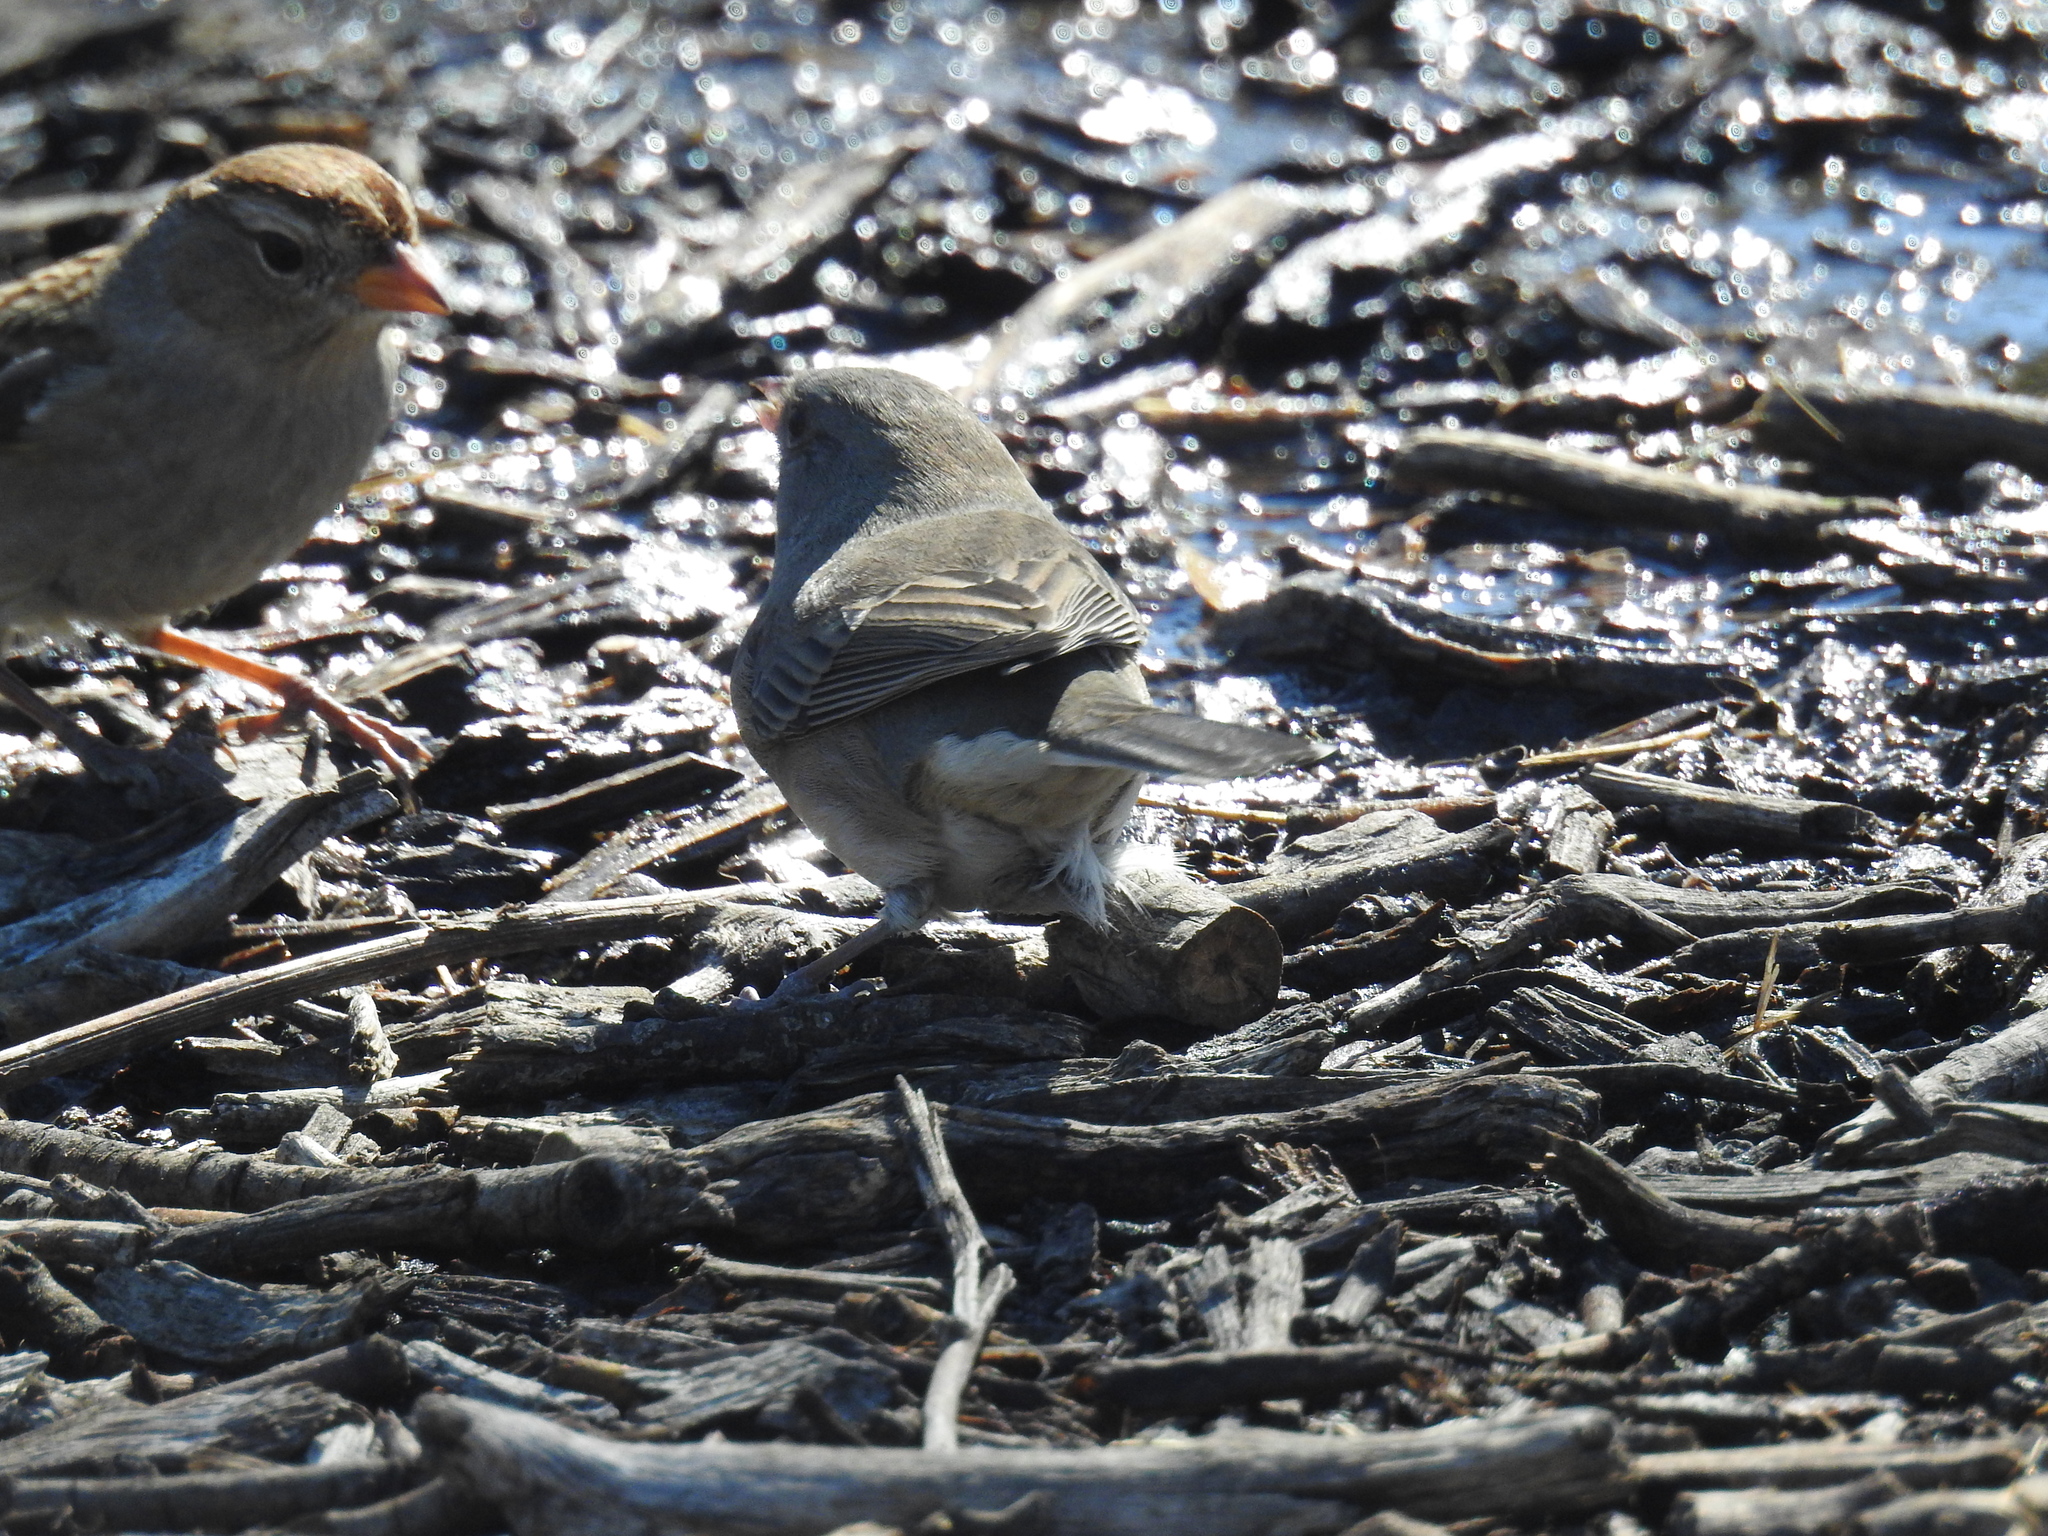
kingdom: Animalia
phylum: Chordata
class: Aves
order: Passeriformes
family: Passerellidae
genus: Junco
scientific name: Junco hyemalis
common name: Dark-eyed junco
